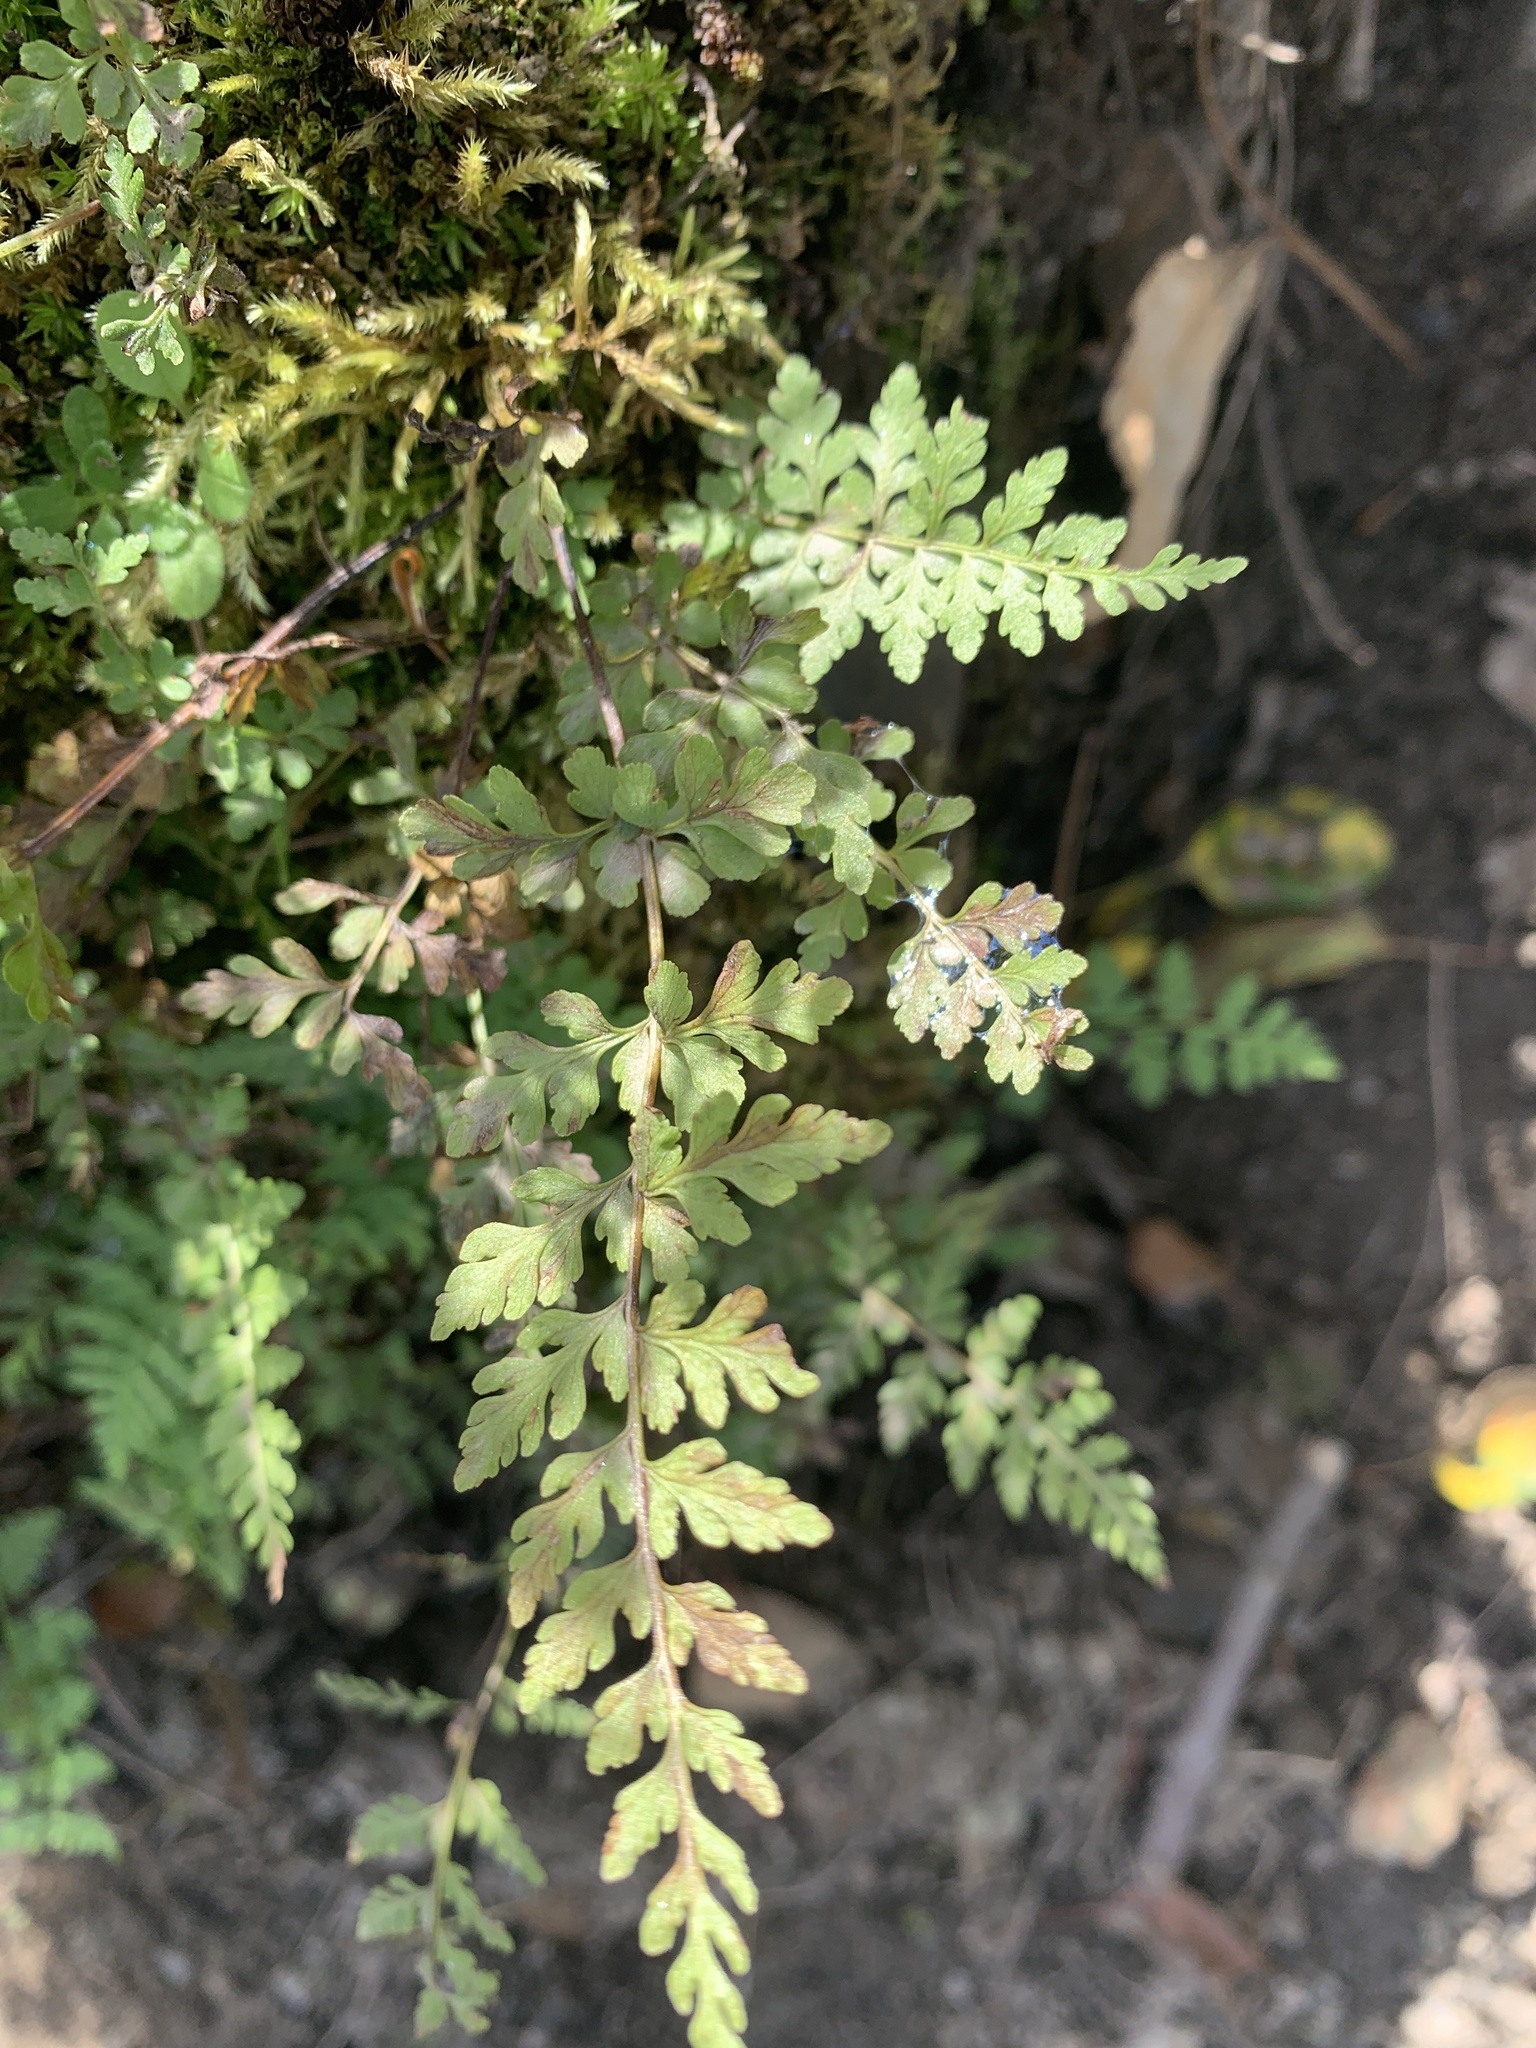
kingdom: Plantae
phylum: Tracheophyta
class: Polypodiopsida
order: Polypodiales
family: Cystopteridaceae
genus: Cystopteris
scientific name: Cystopteris fragilis
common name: Brittle bladder fern
